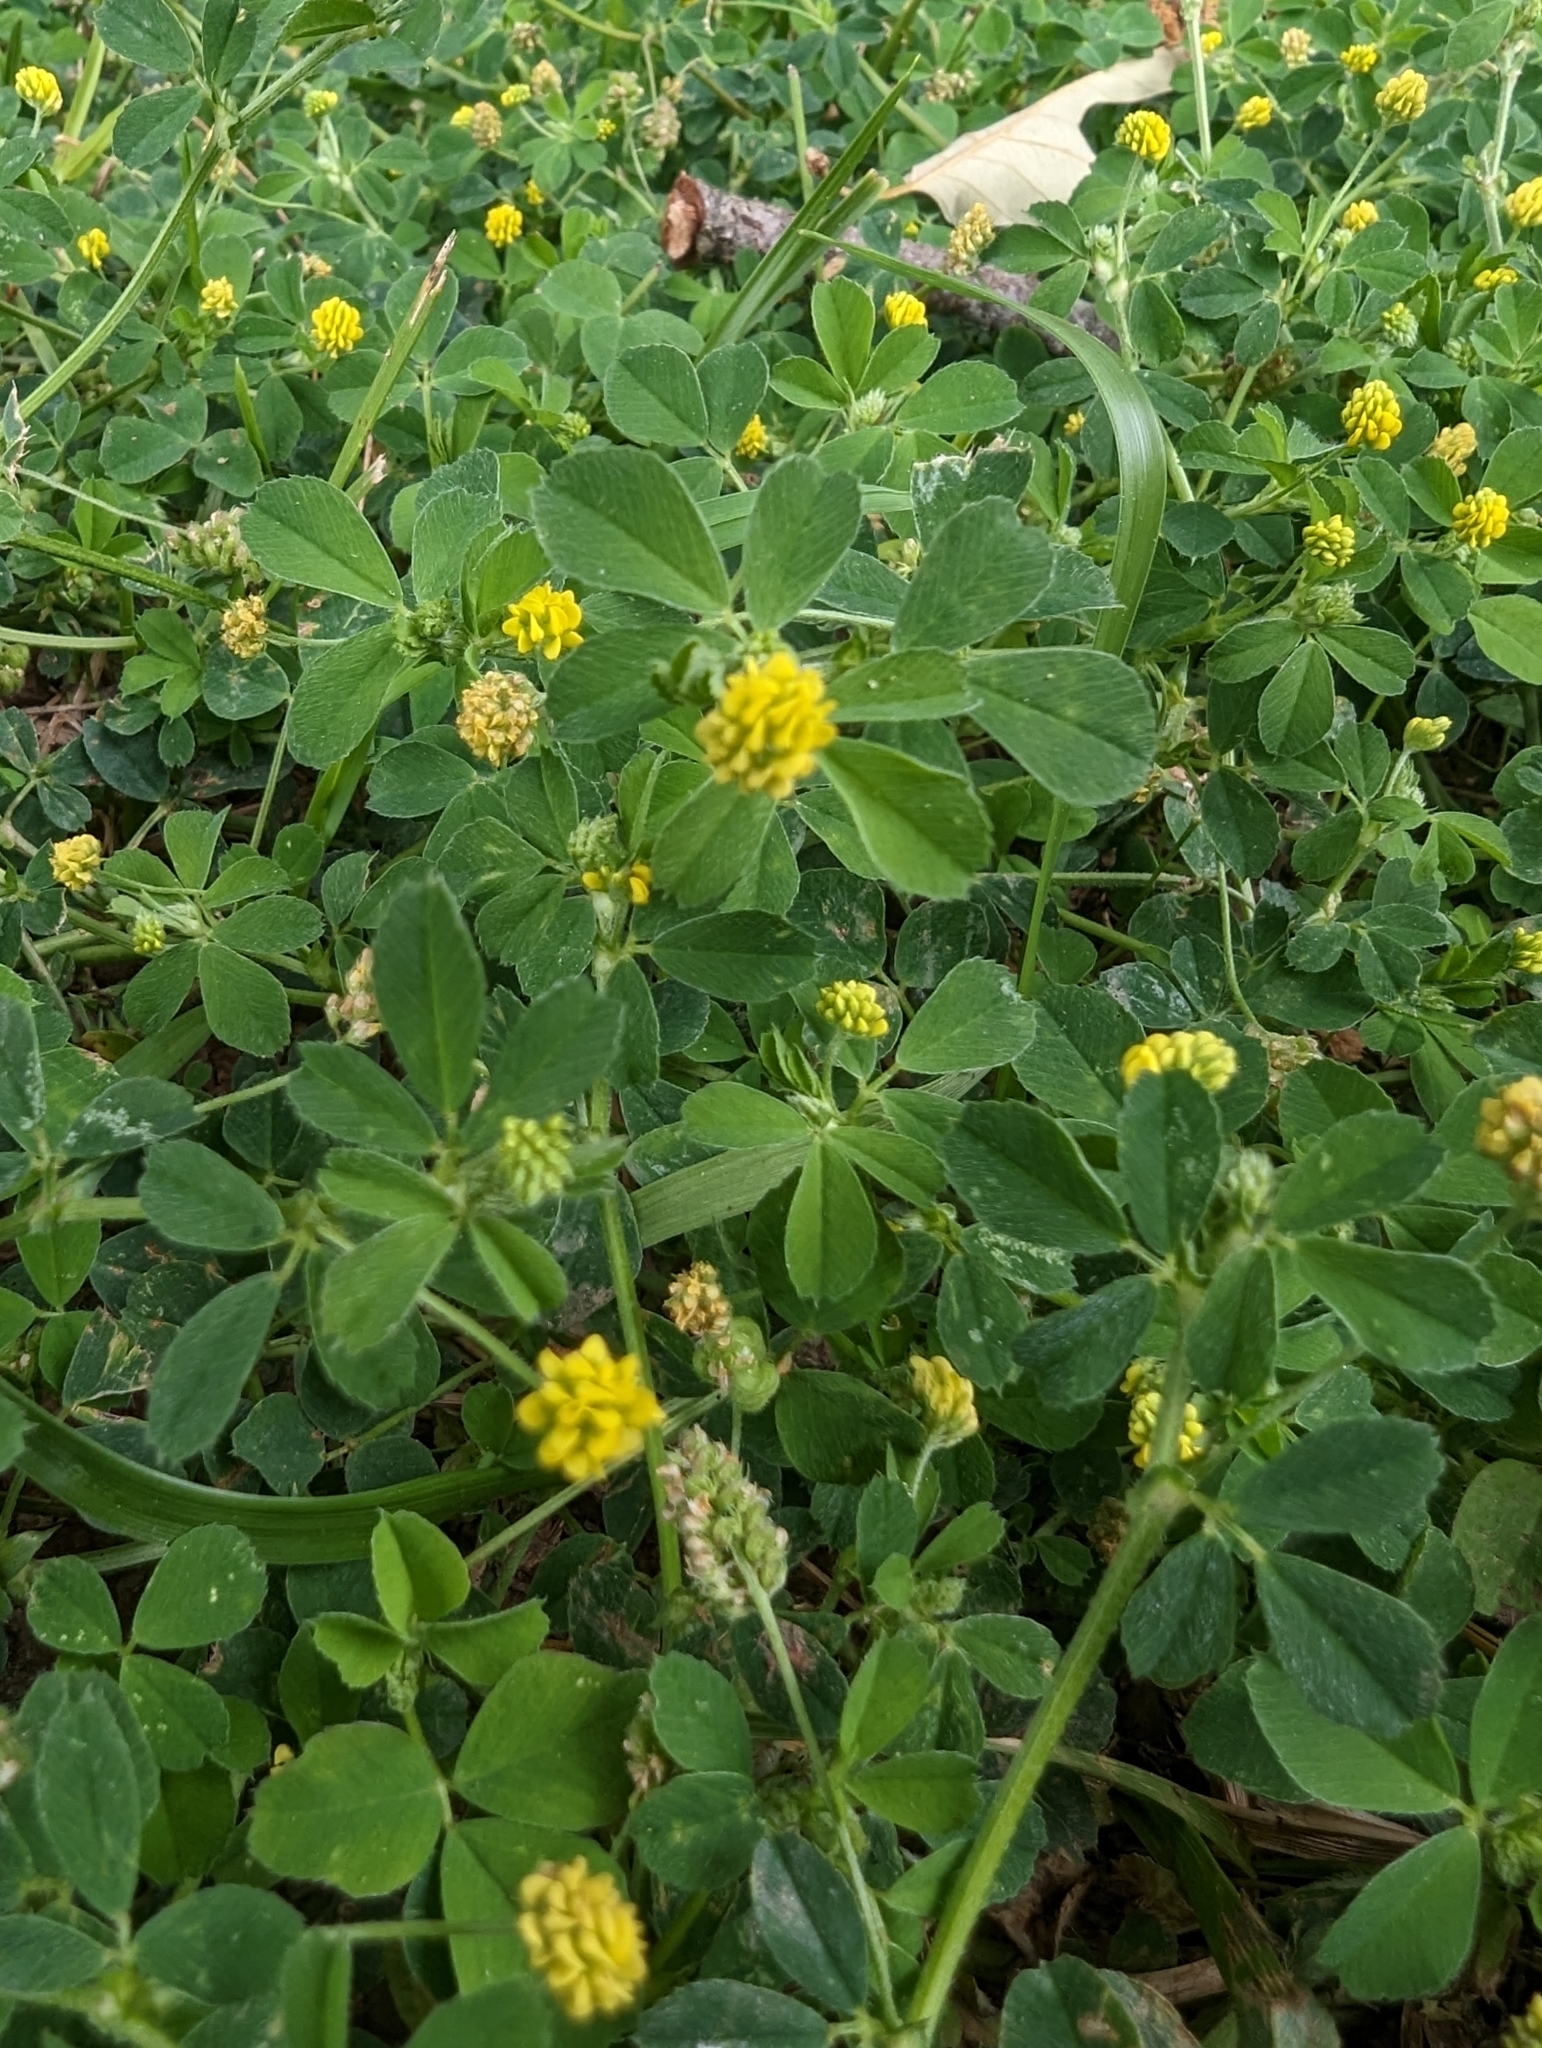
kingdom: Plantae
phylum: Tracheophyta
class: Magnoliopsida
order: Fabales
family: Fabaceae
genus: Medicago
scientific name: Medicago lupulina
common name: Black medick
